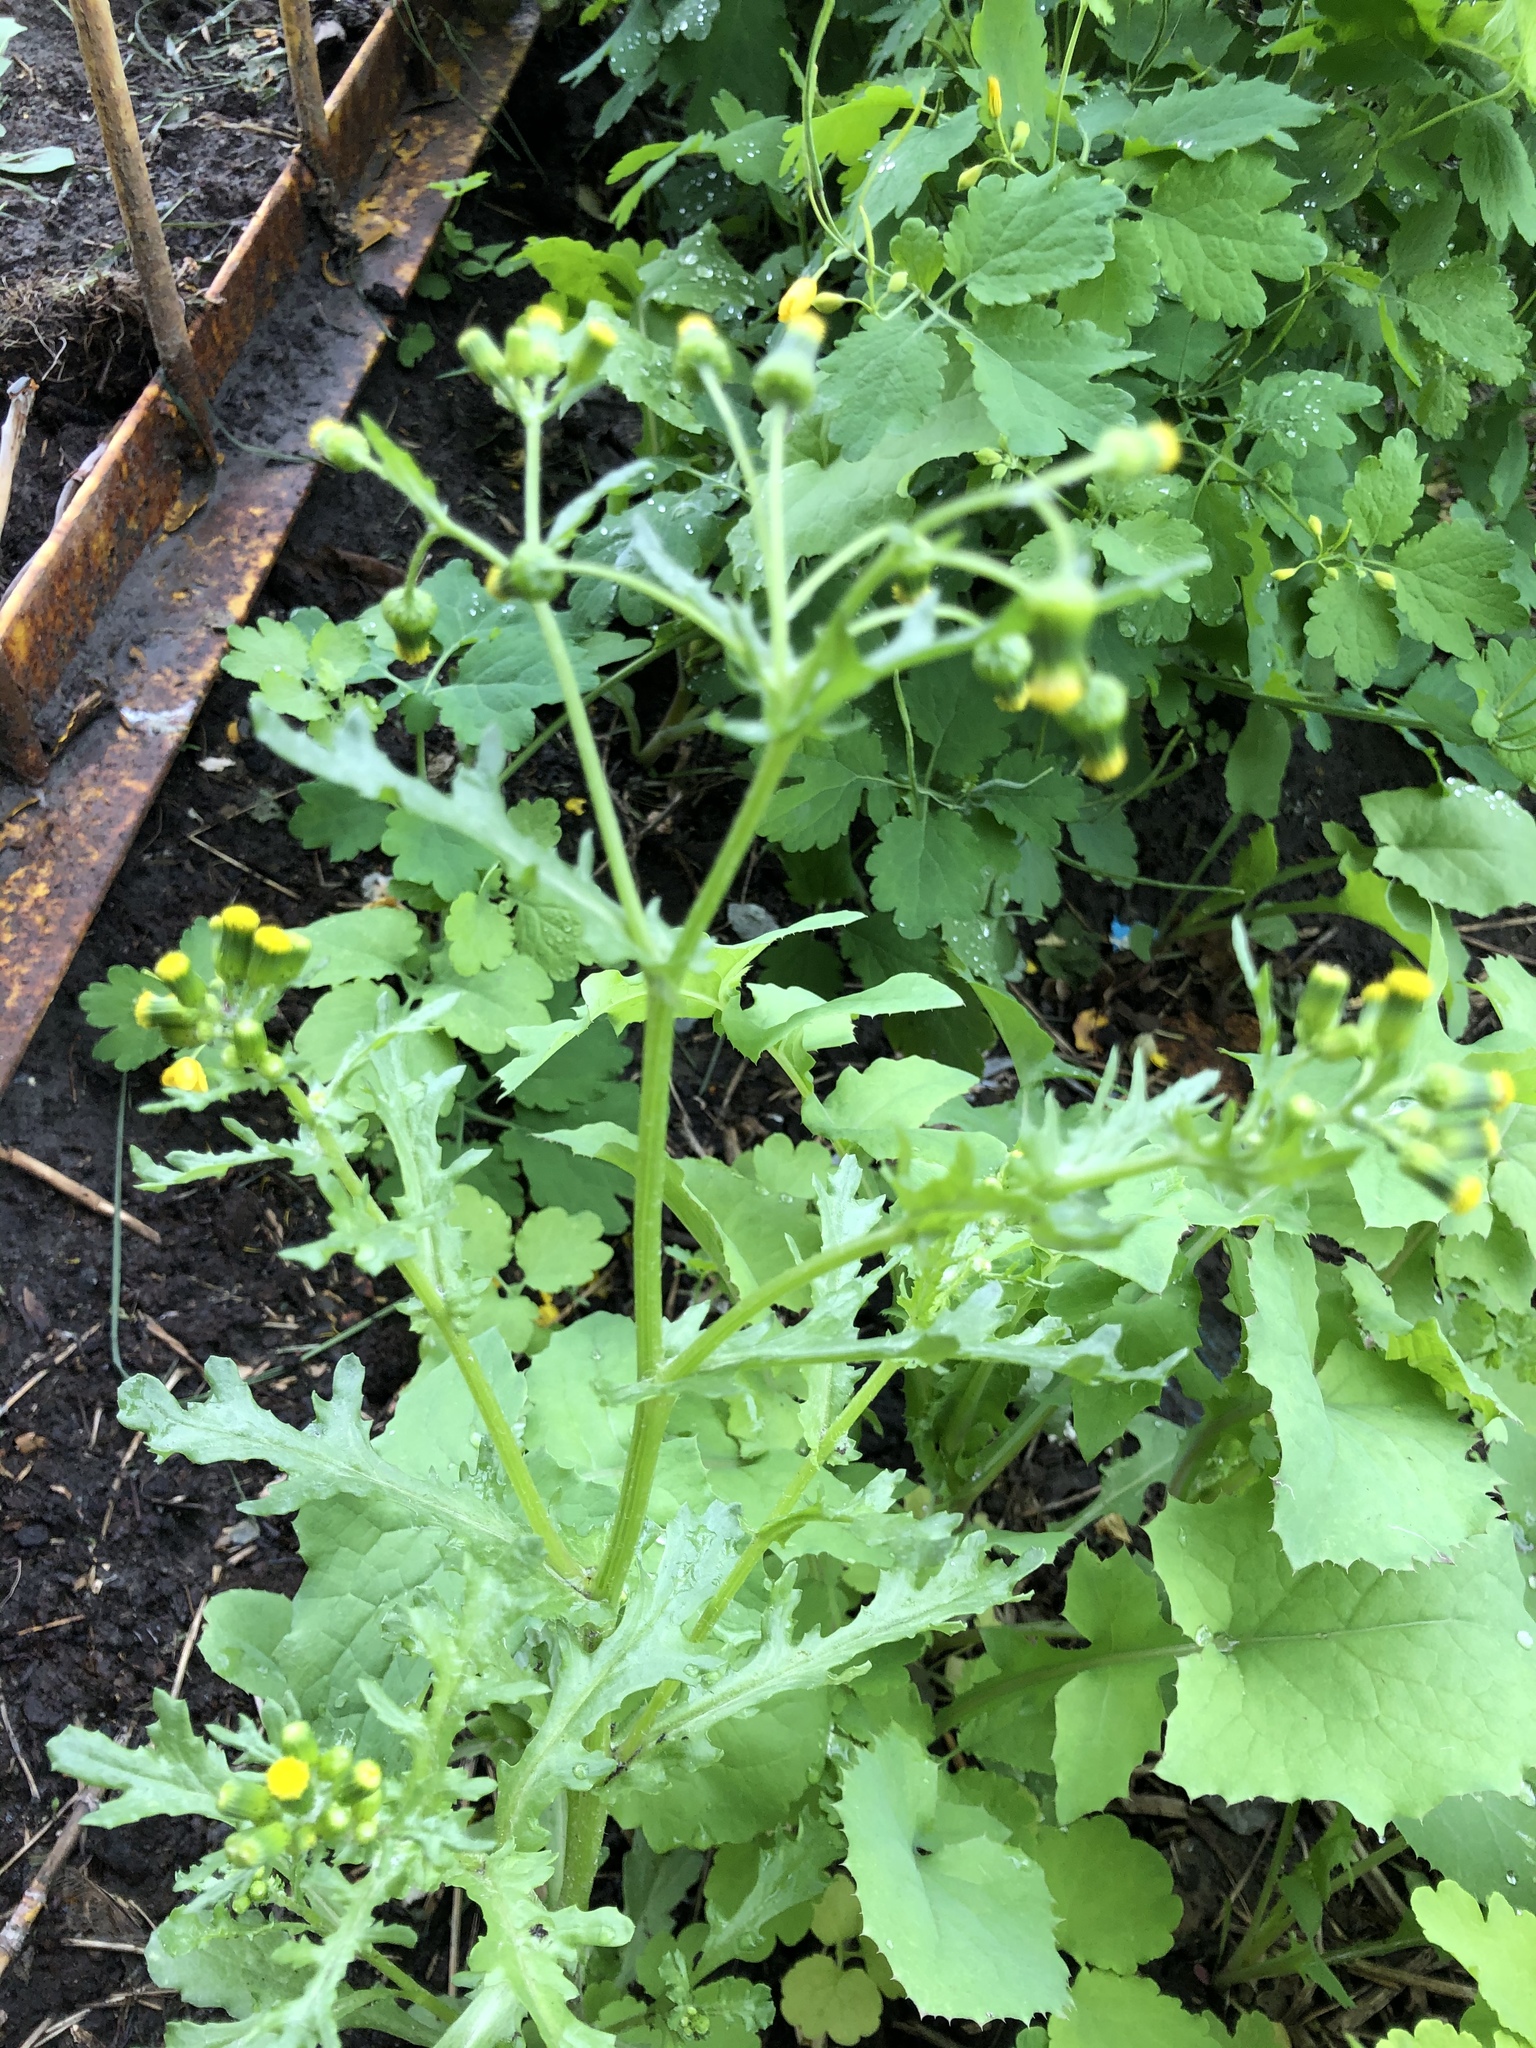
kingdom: Plantae
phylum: Tracheophyta
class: Magnoliopsida
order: Asterales
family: Asteraceae
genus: Senecio
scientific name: Senecio vulgaris
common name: Old-man-in-the-spring
